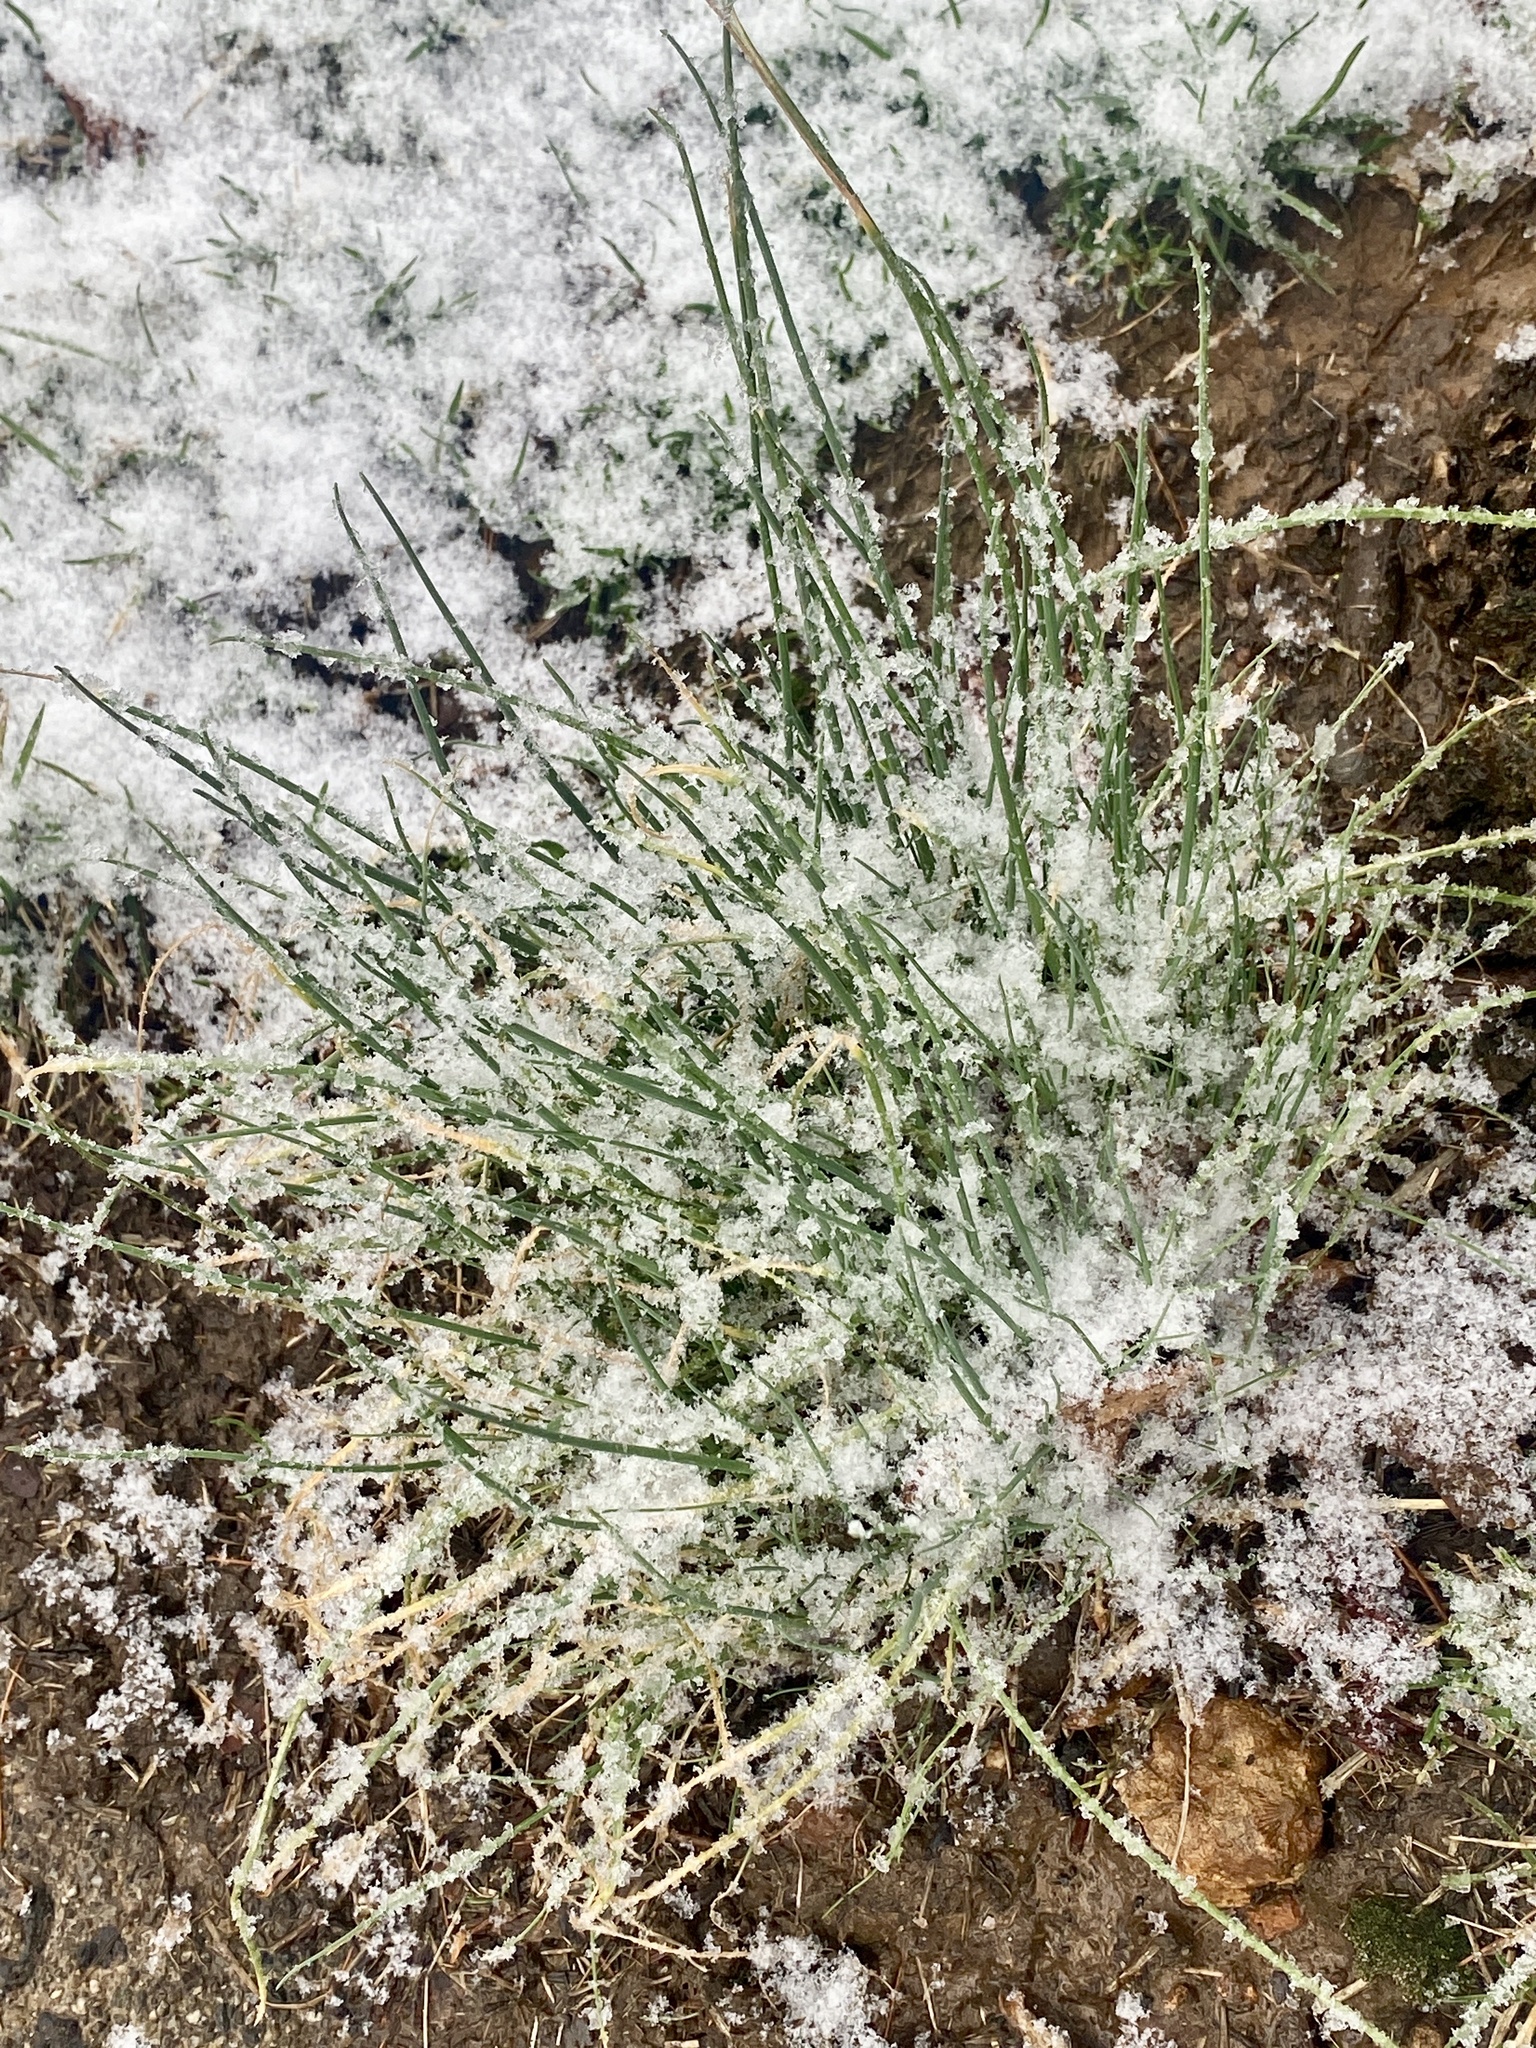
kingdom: Plantae
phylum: Tracheophyta
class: Liliopsida
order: Asparagales
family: Amaryllidaceae
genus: Allium
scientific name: Allium vineale
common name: Crow garlic
